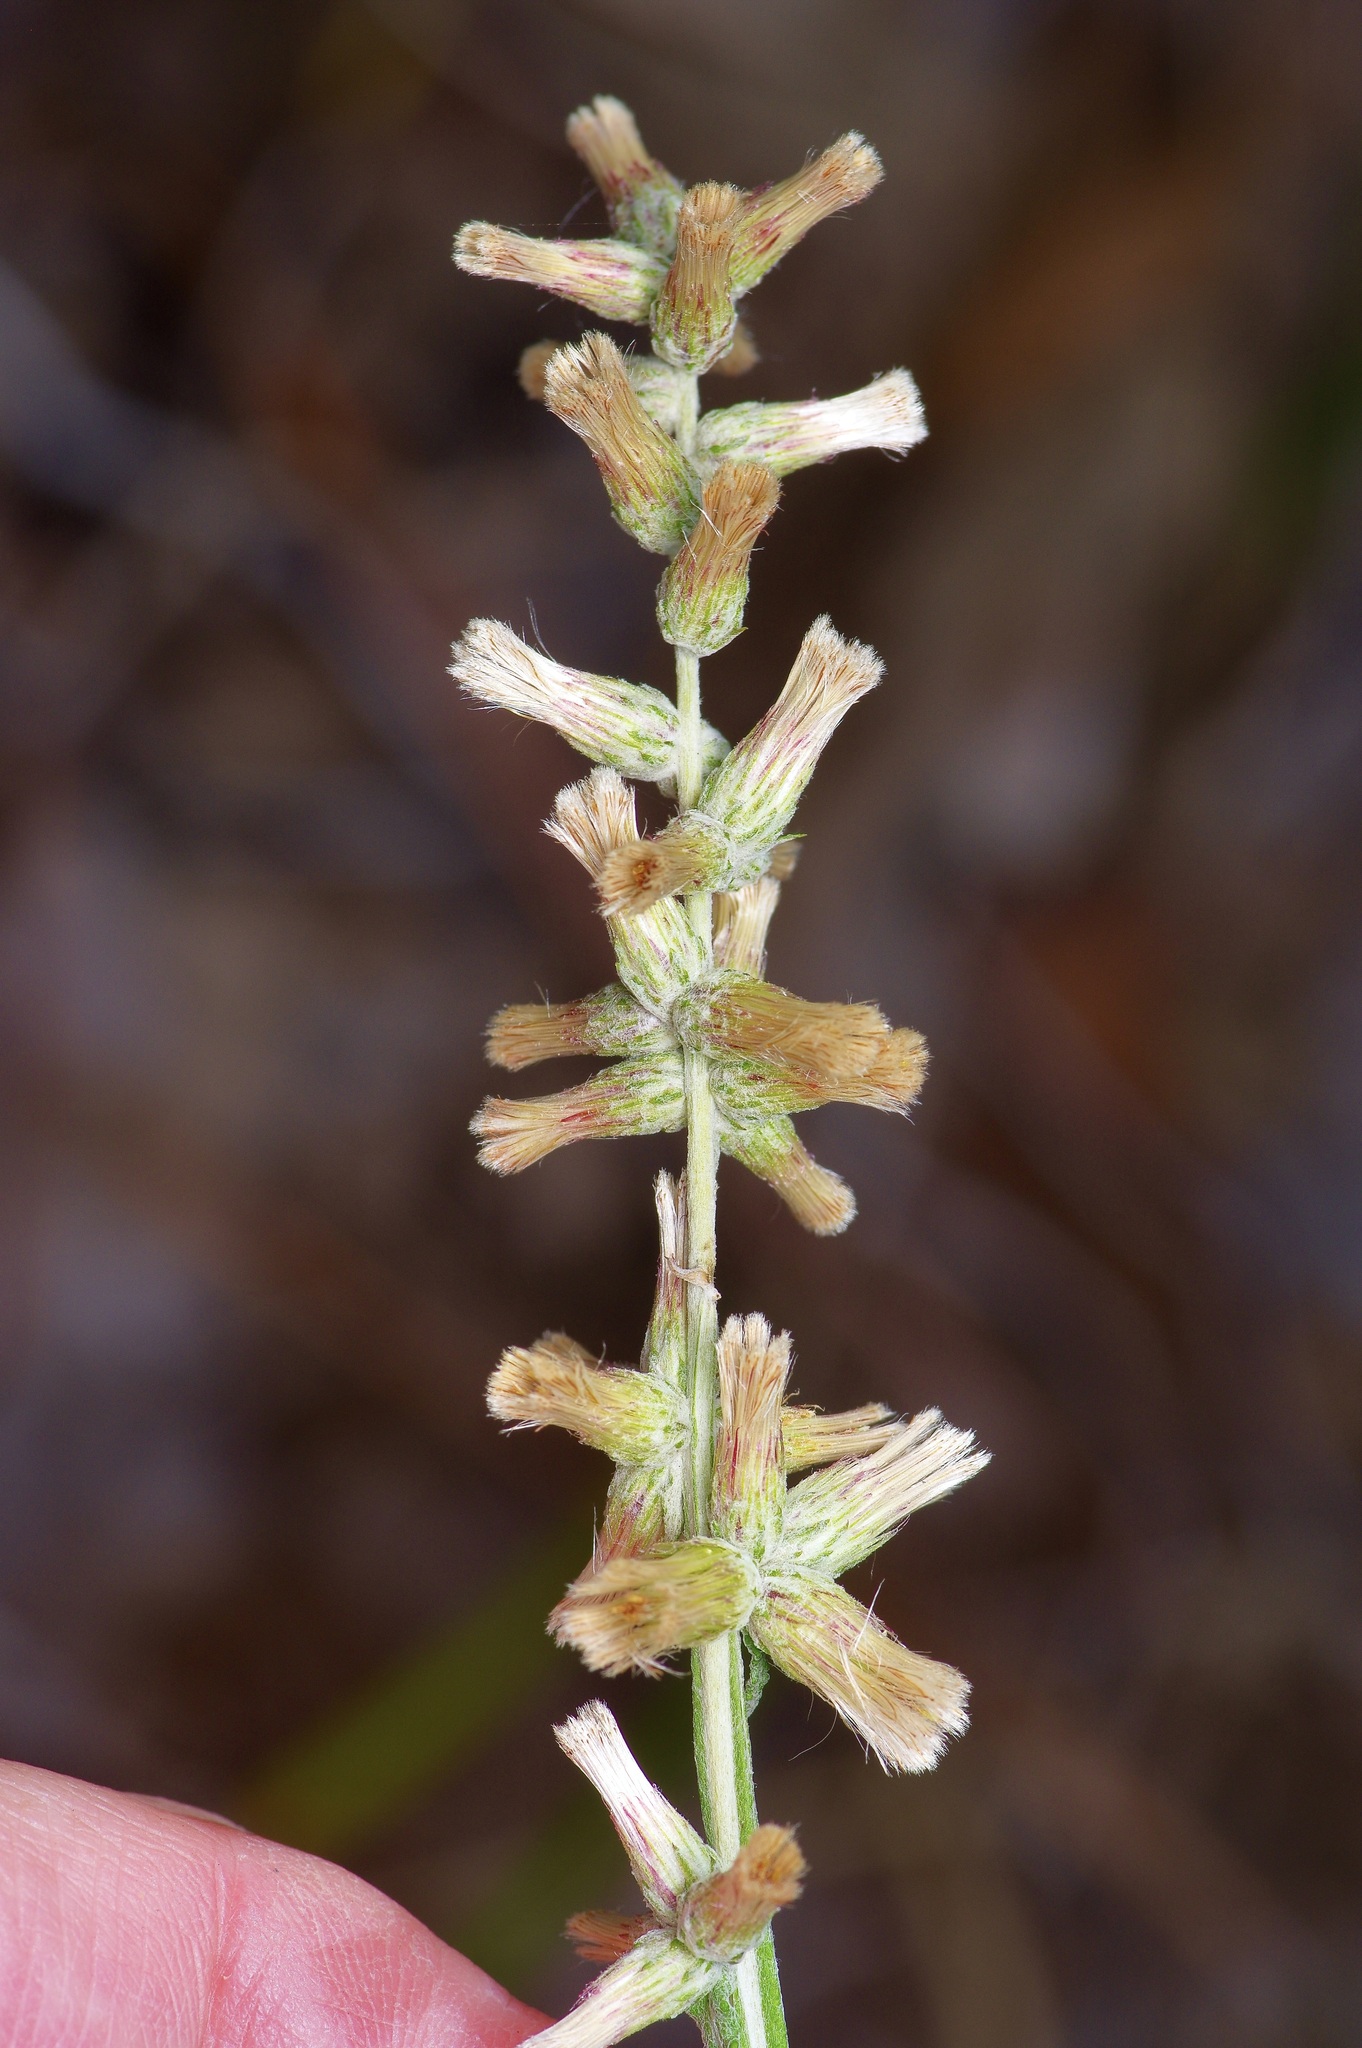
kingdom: Plantae
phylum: Tracheophyta
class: Magnoliopsida
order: Asterales
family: Asteraceae
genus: Pterocaulon
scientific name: Pterocaulon virgatum
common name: Wand blackroot
